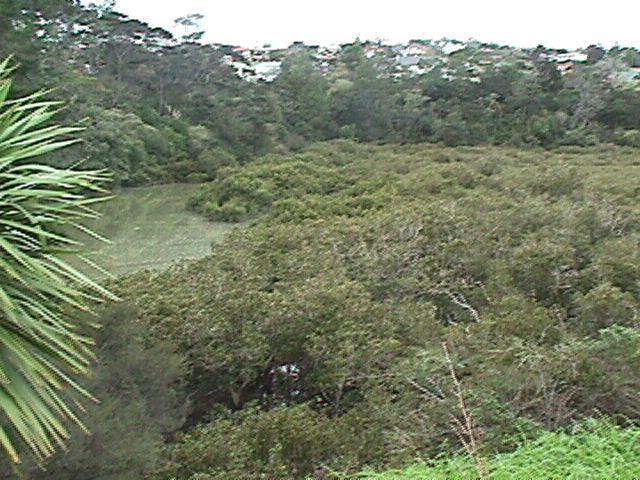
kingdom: Plantae
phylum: Tracheophyta
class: Magnoliopsida
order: Lamiales
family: Acanthaceae
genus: Avicennia
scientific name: Avicennia marina
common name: Gray mangrove
